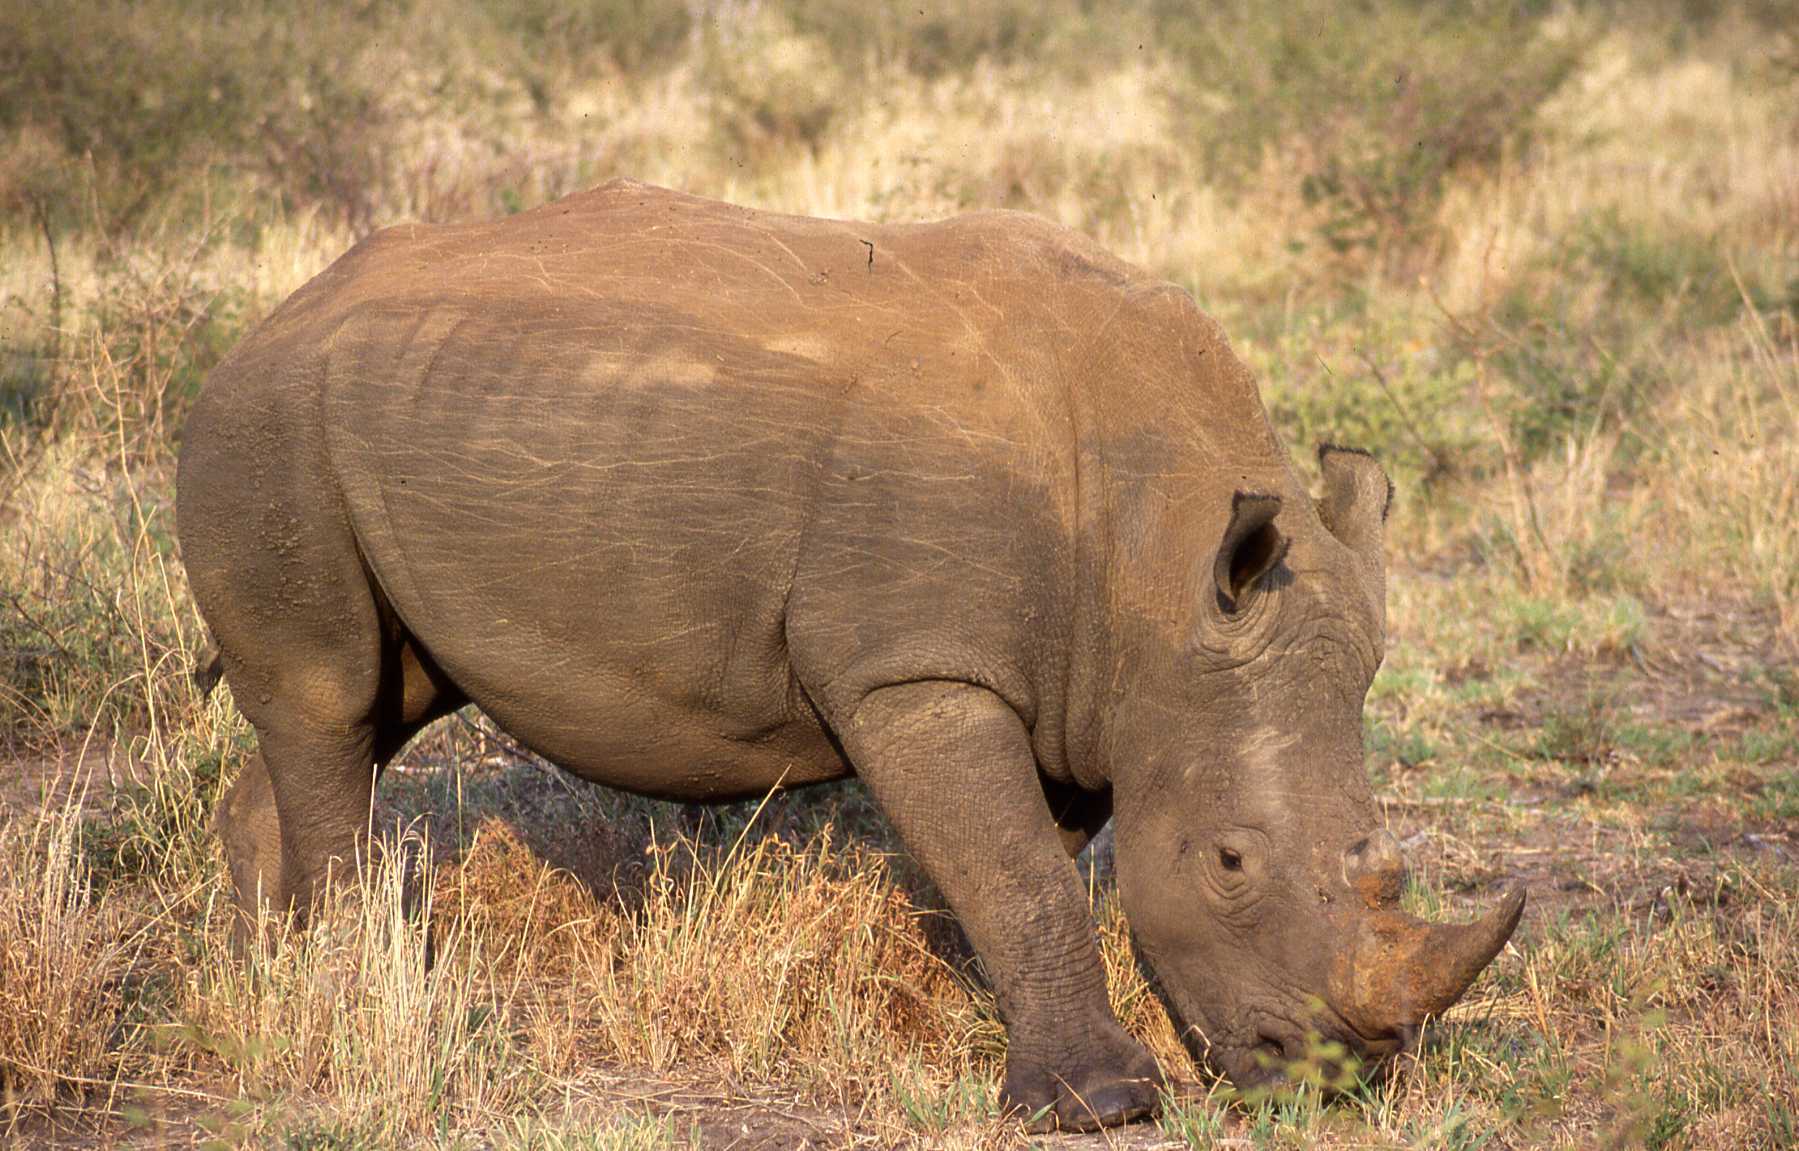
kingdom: Animalia
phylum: Chordata
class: Mammalia
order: Perissodactyla
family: Rhinocerotidae
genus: Ceratotherium
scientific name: Ceratotherium simum
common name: White rhinoceros
